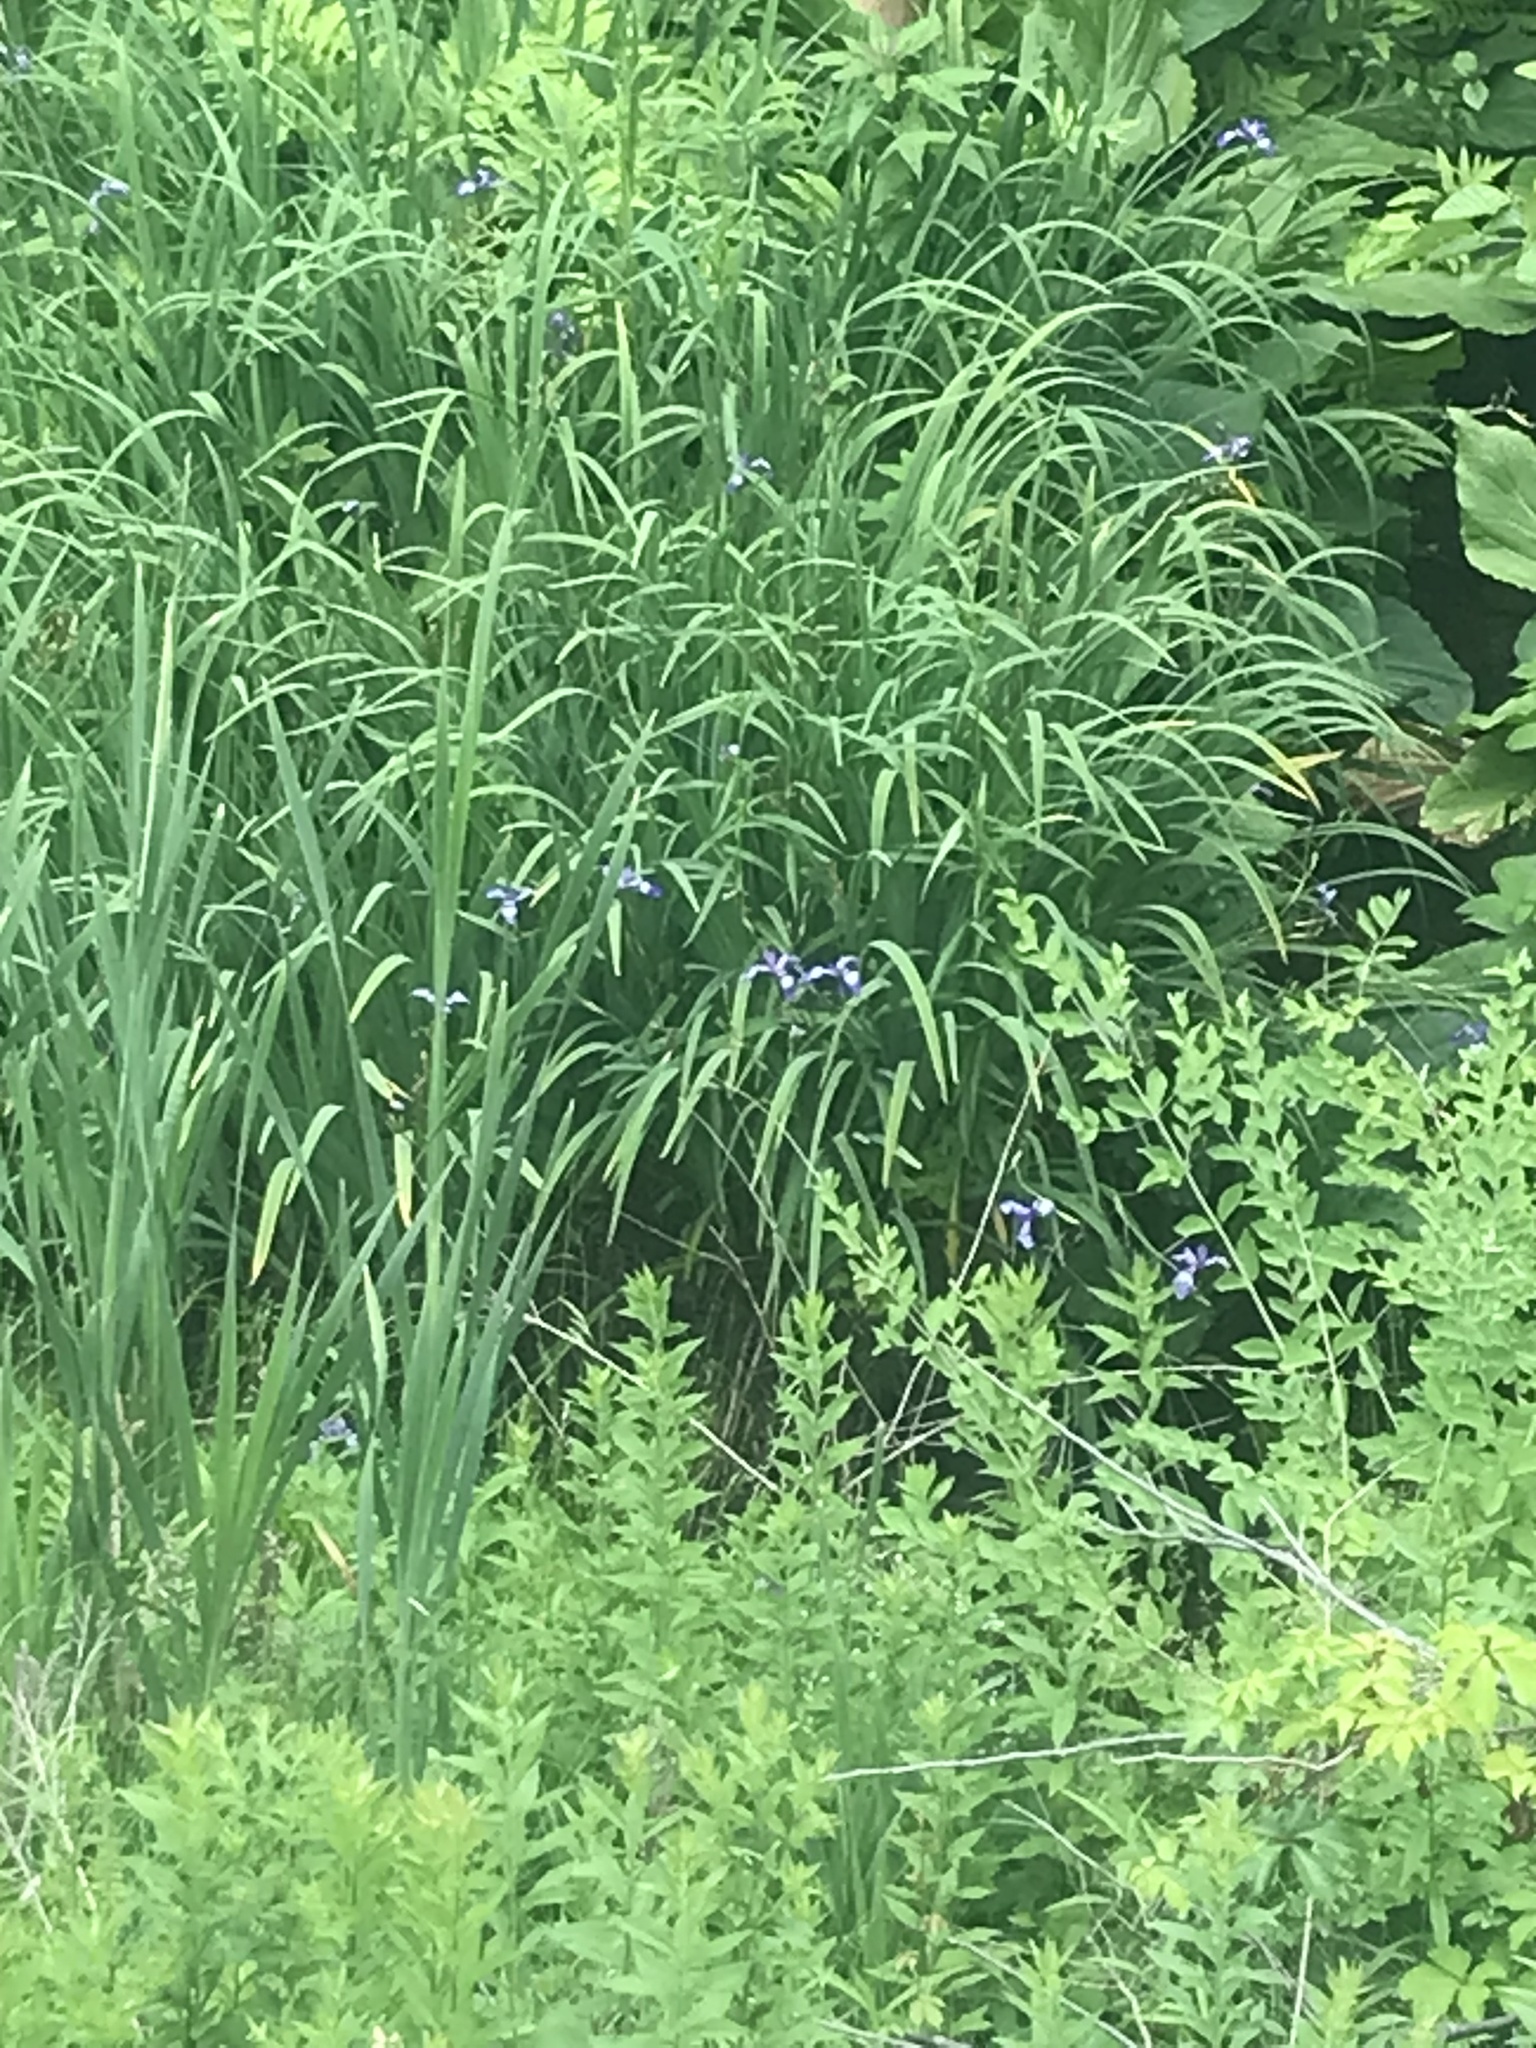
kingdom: Plantae
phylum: Tracheophyta
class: Liliopsida
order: Asparagales
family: Iridaceae
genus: Iris
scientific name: Iris versicolor
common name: Purple iris
